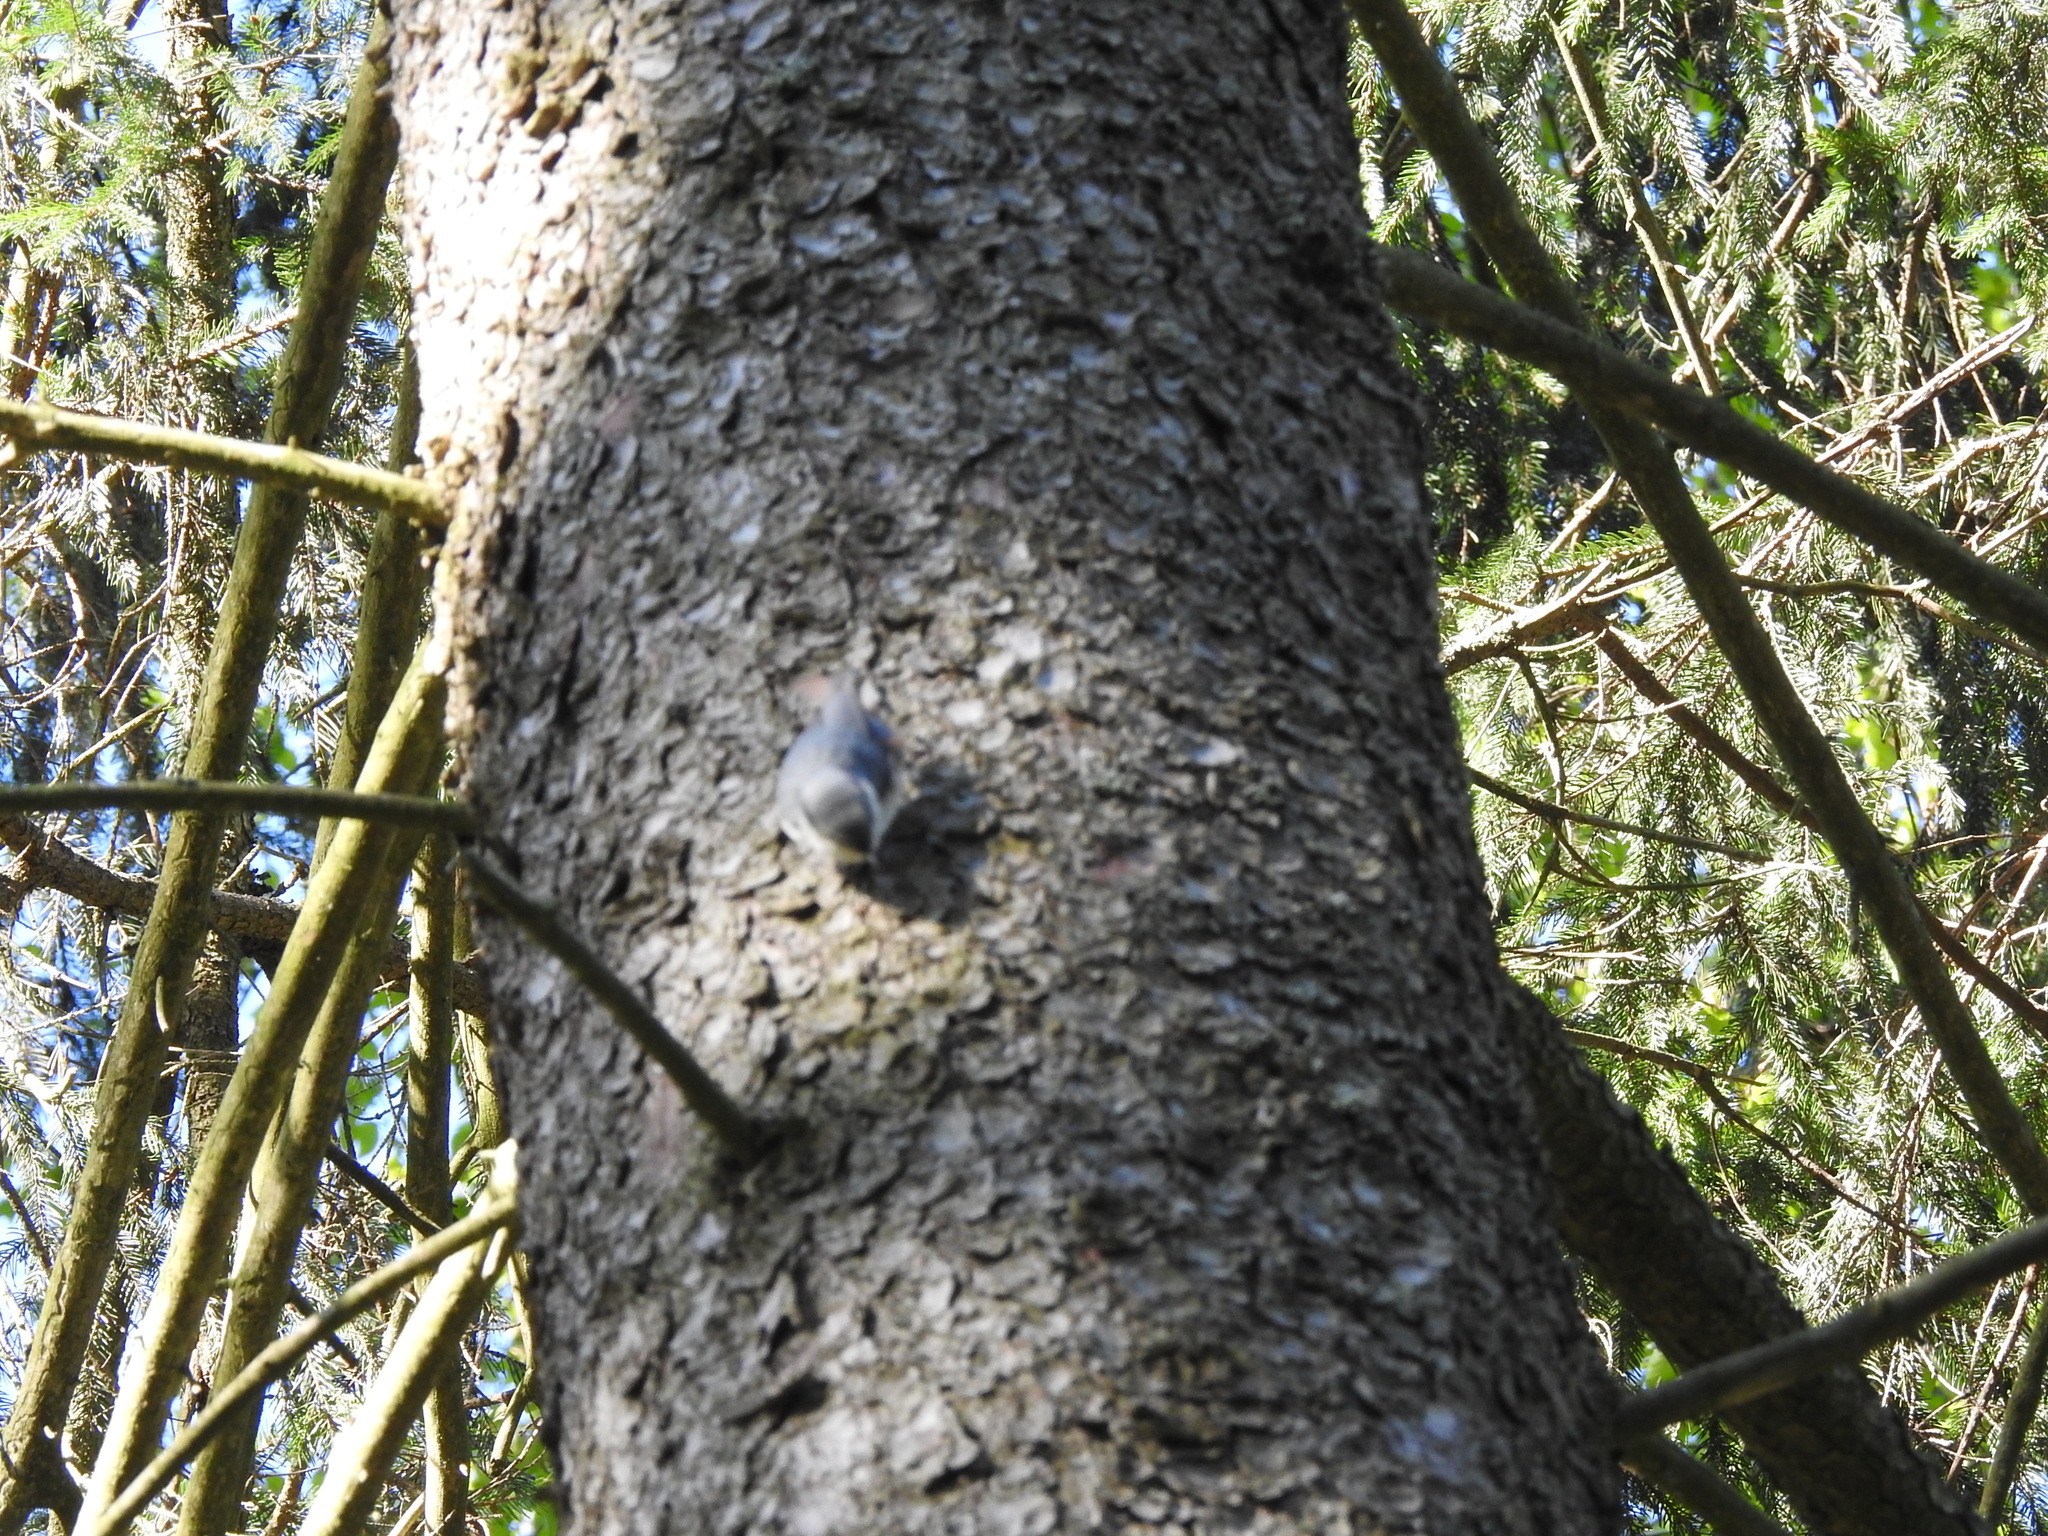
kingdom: Animalia
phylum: Chordata
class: Aves
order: Passeriformes
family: Sittidae
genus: Sitta
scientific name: Sitta europaea
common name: Eurasian nuthatch
